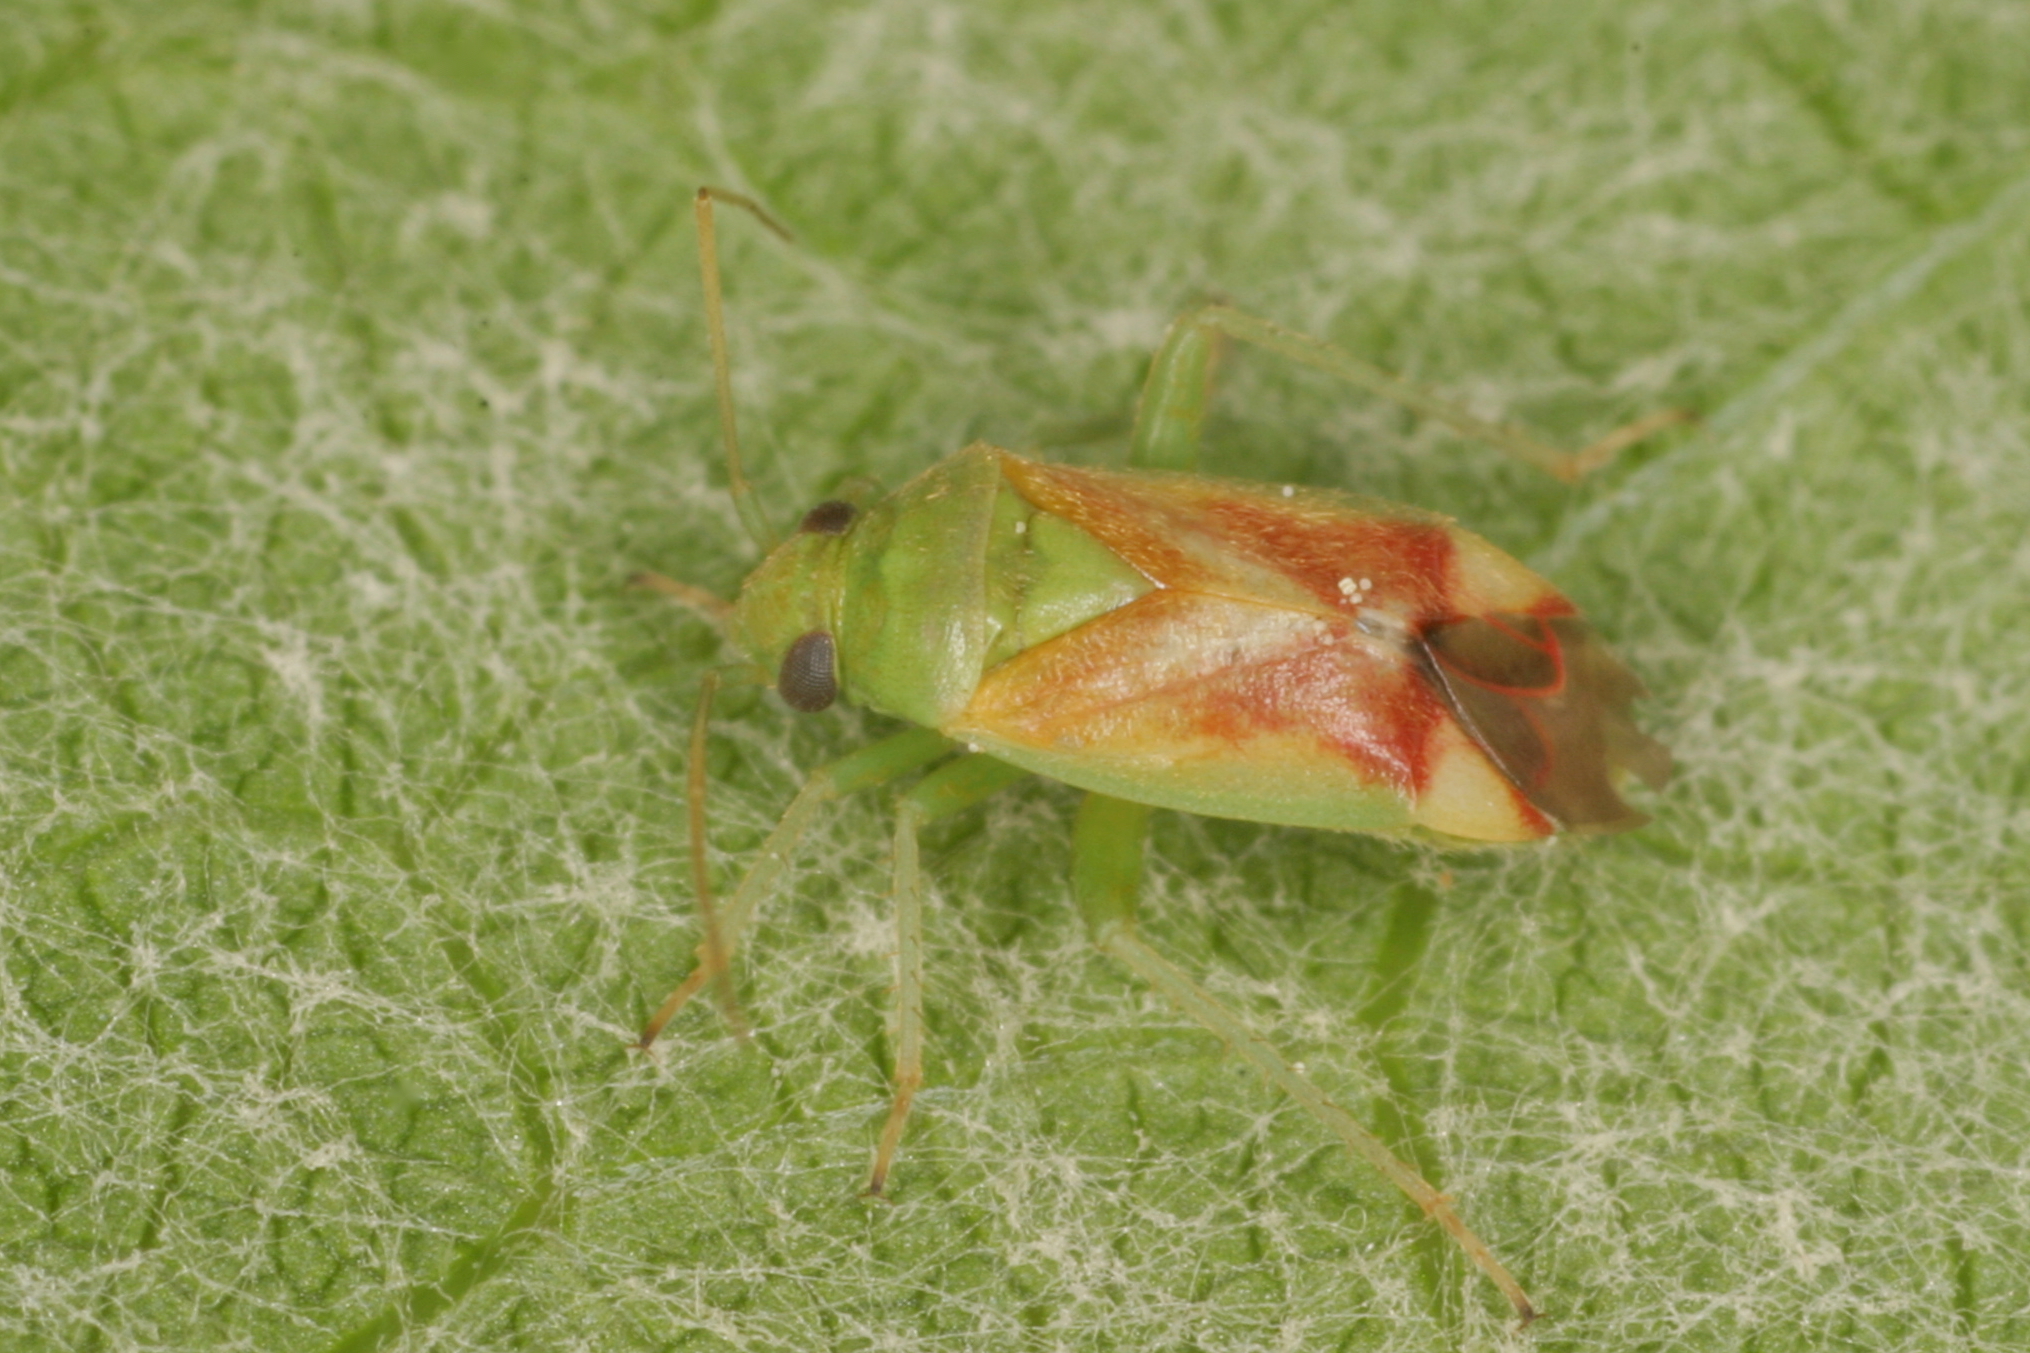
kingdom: Animalia
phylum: Arthropoda
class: Insecta
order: Hemiptera
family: Miridae
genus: Dichrooscytus
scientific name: Dichrooscytus gustavi
